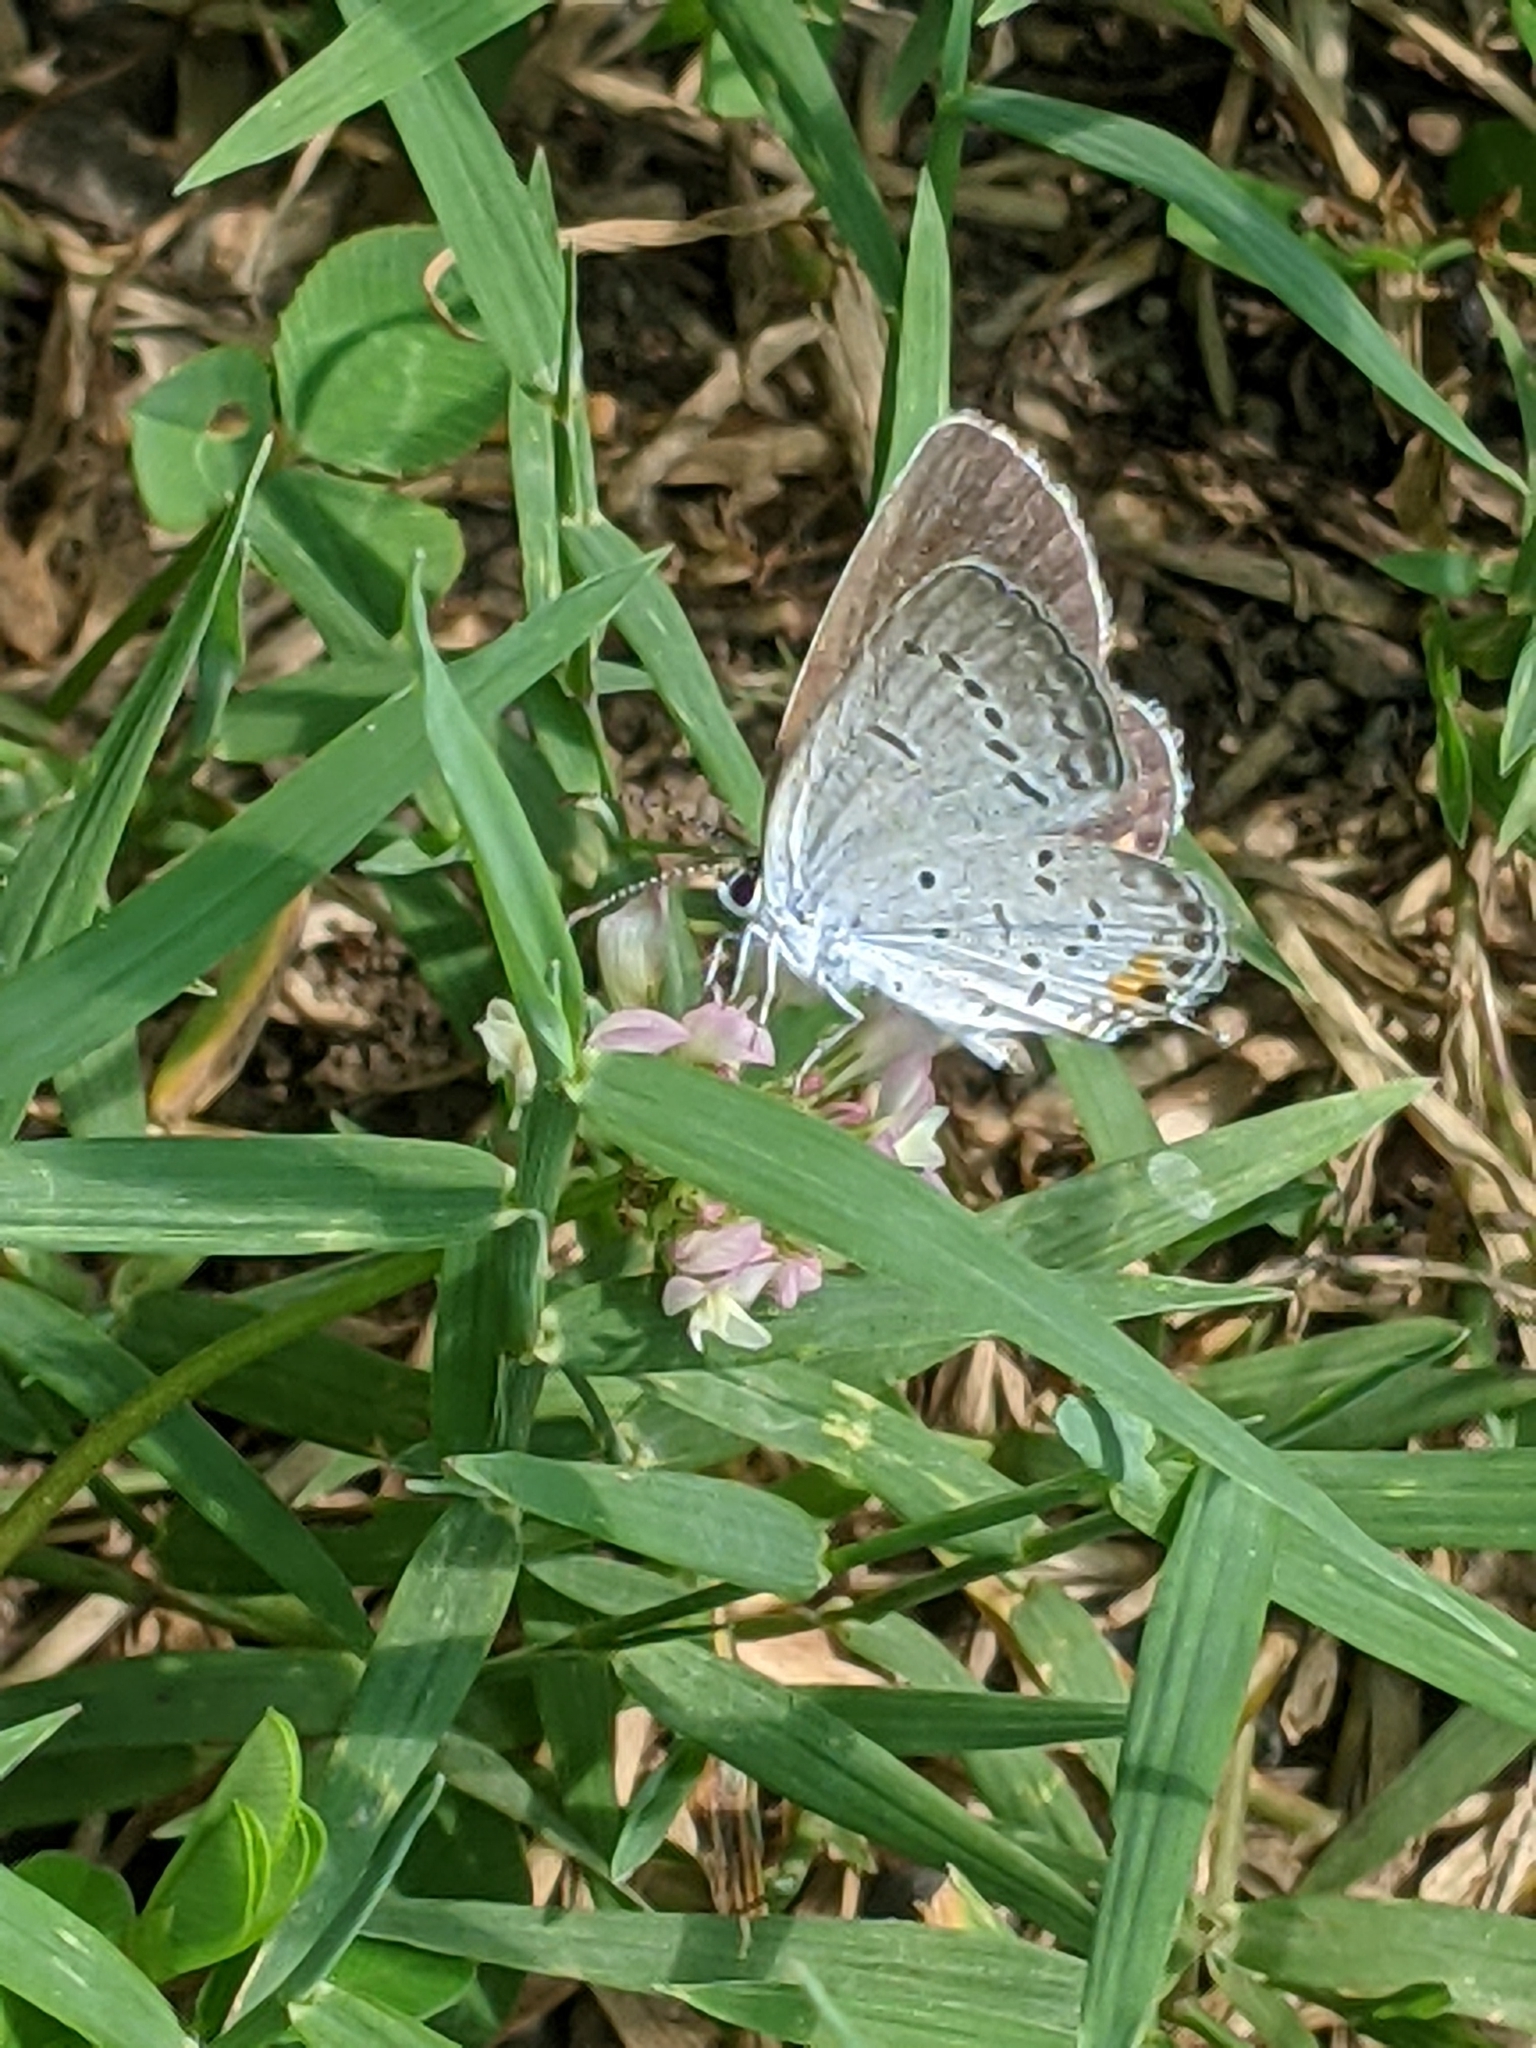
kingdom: Animalia
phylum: Arthropoda
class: Insecta
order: Lepidoptera
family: Lycaenidae
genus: Elkalyce
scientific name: Elkalyce comyntas
